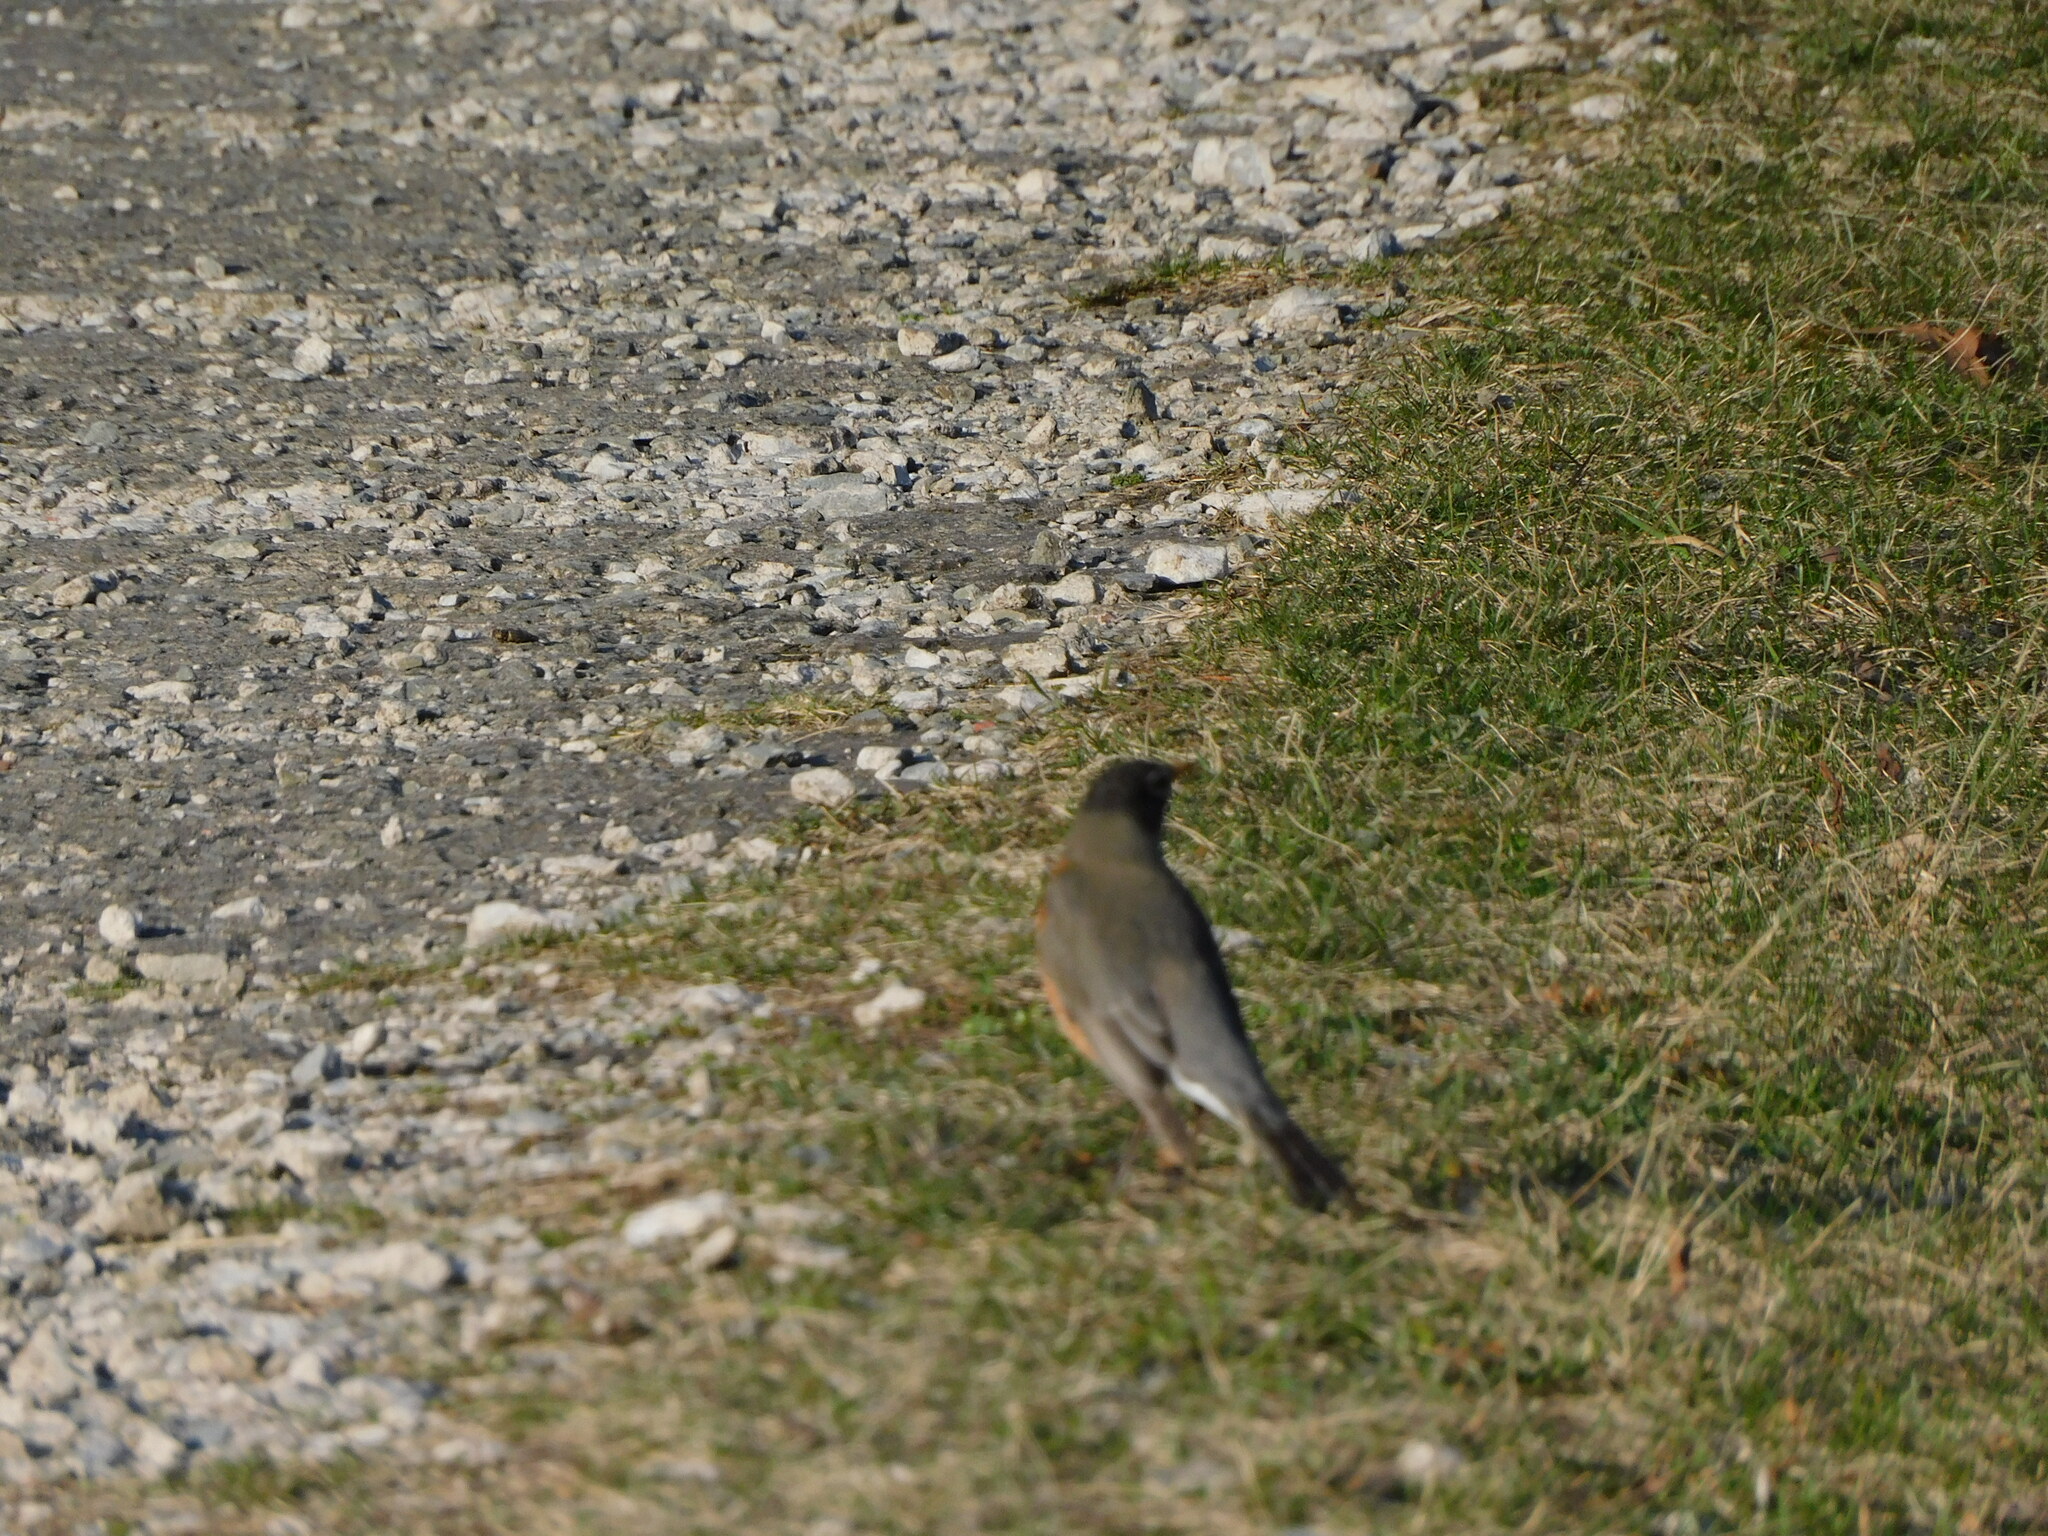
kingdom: Animalia
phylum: Chordata
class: Aves
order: Passeriformes
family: Turdidae
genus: Turdus
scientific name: Turdus migratorius
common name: American robin
